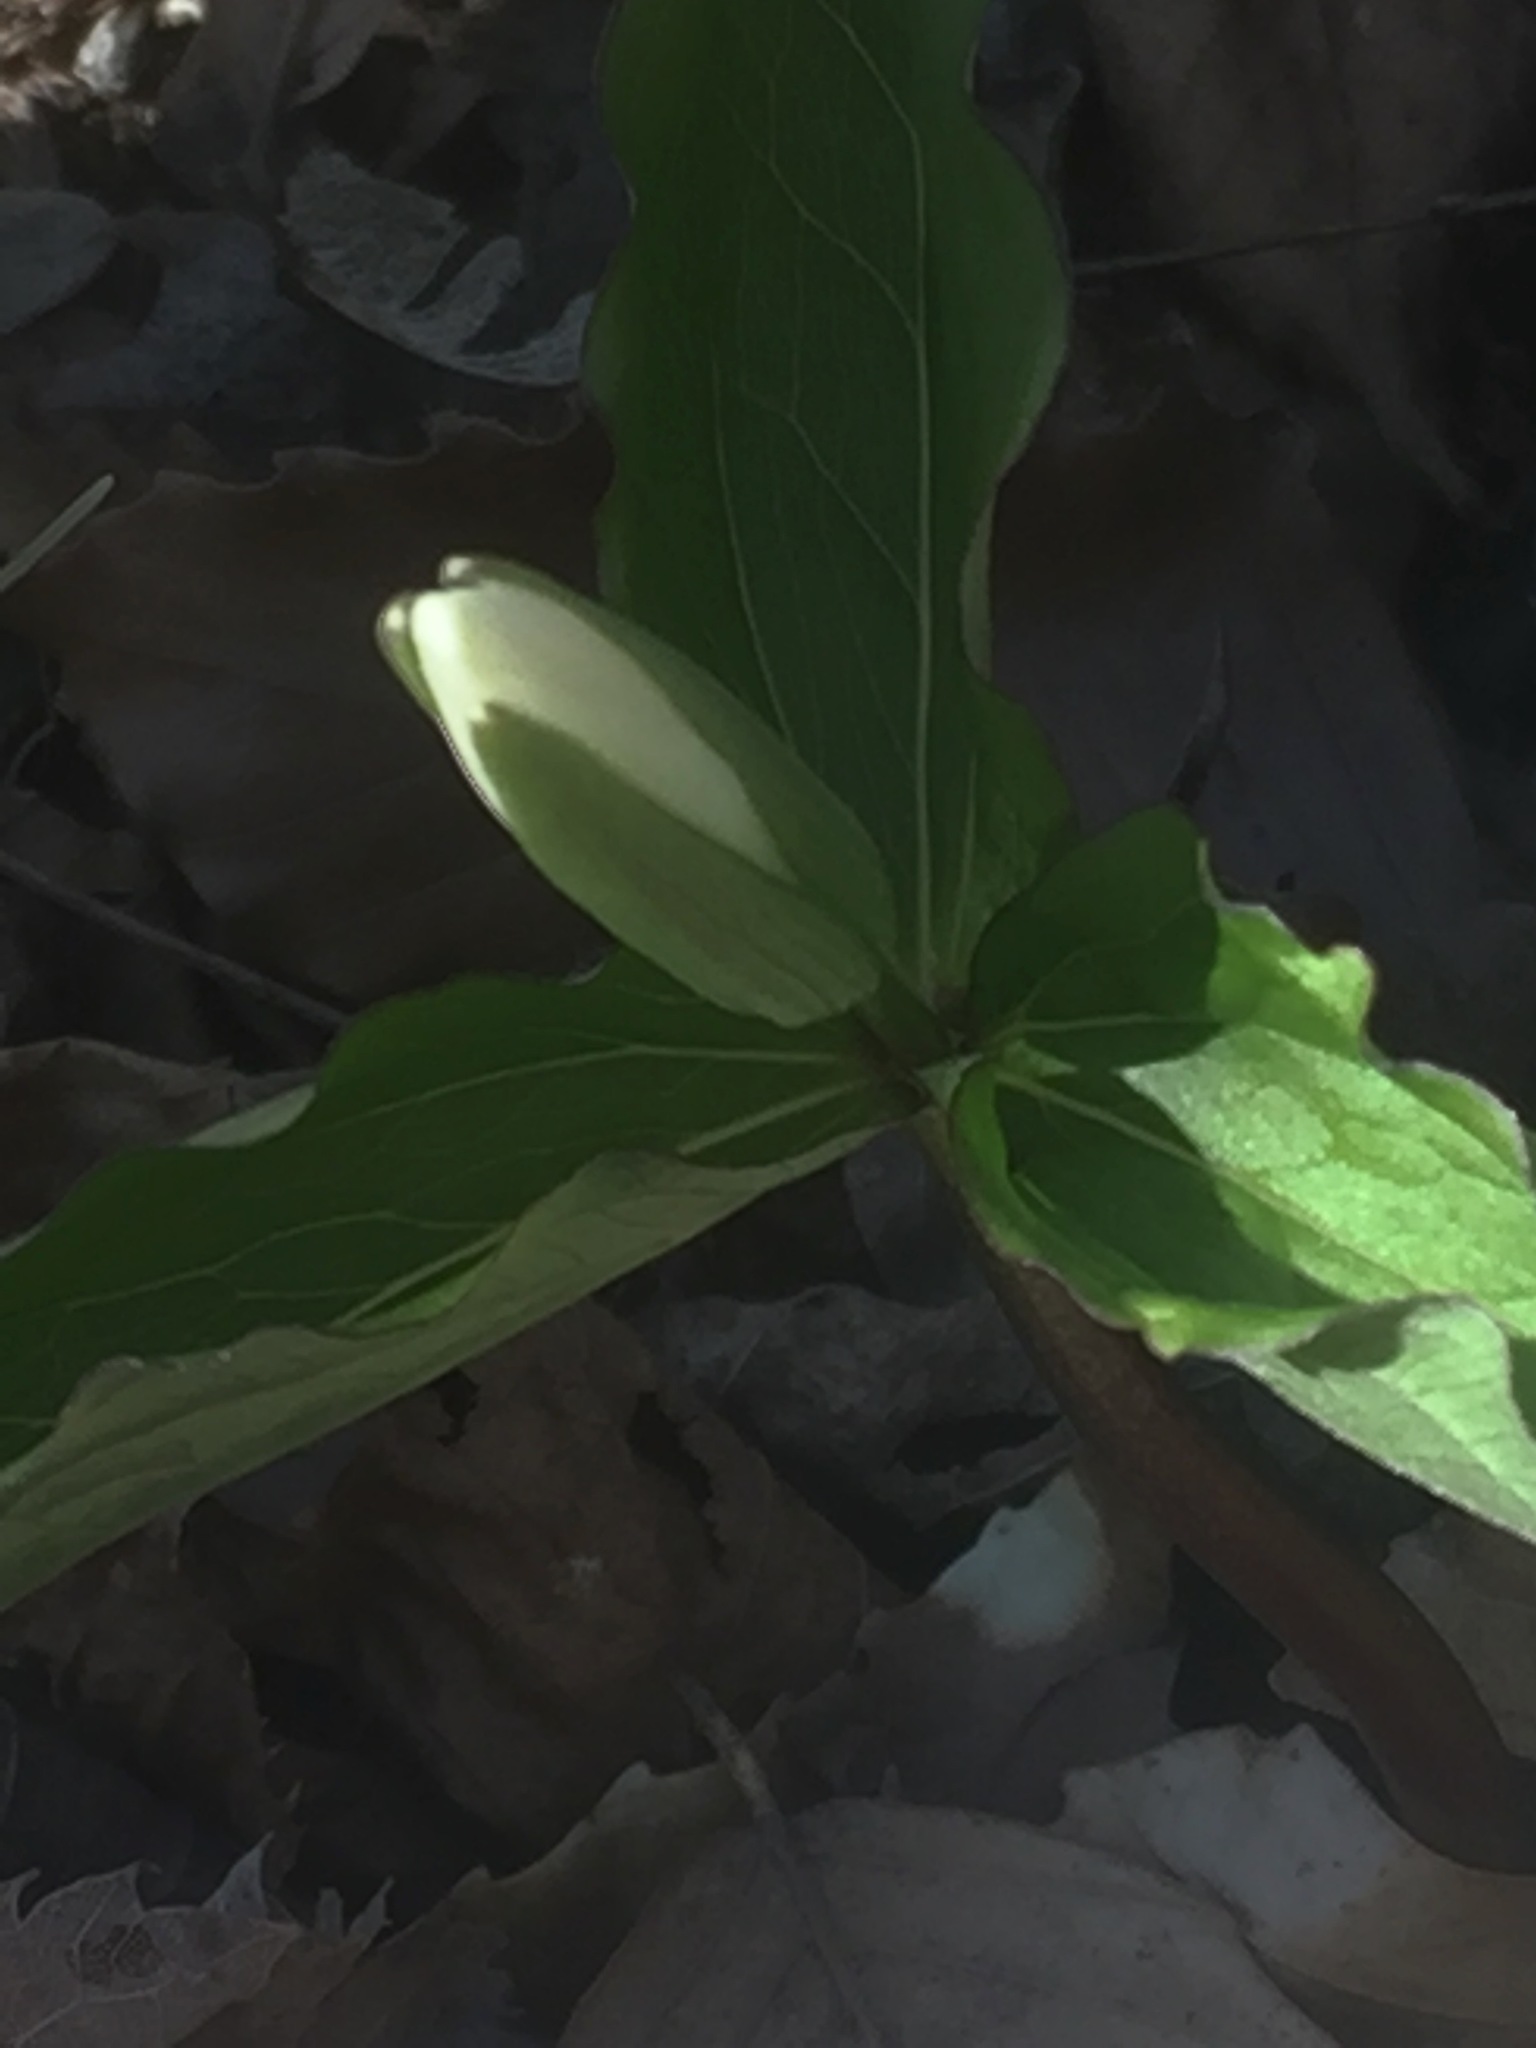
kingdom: Plantae
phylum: Tracheophyta
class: Liliopsida
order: Liliales
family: Melanthiaceae
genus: Trillium
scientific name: Trillium grandiflorum
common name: Great white trillium
